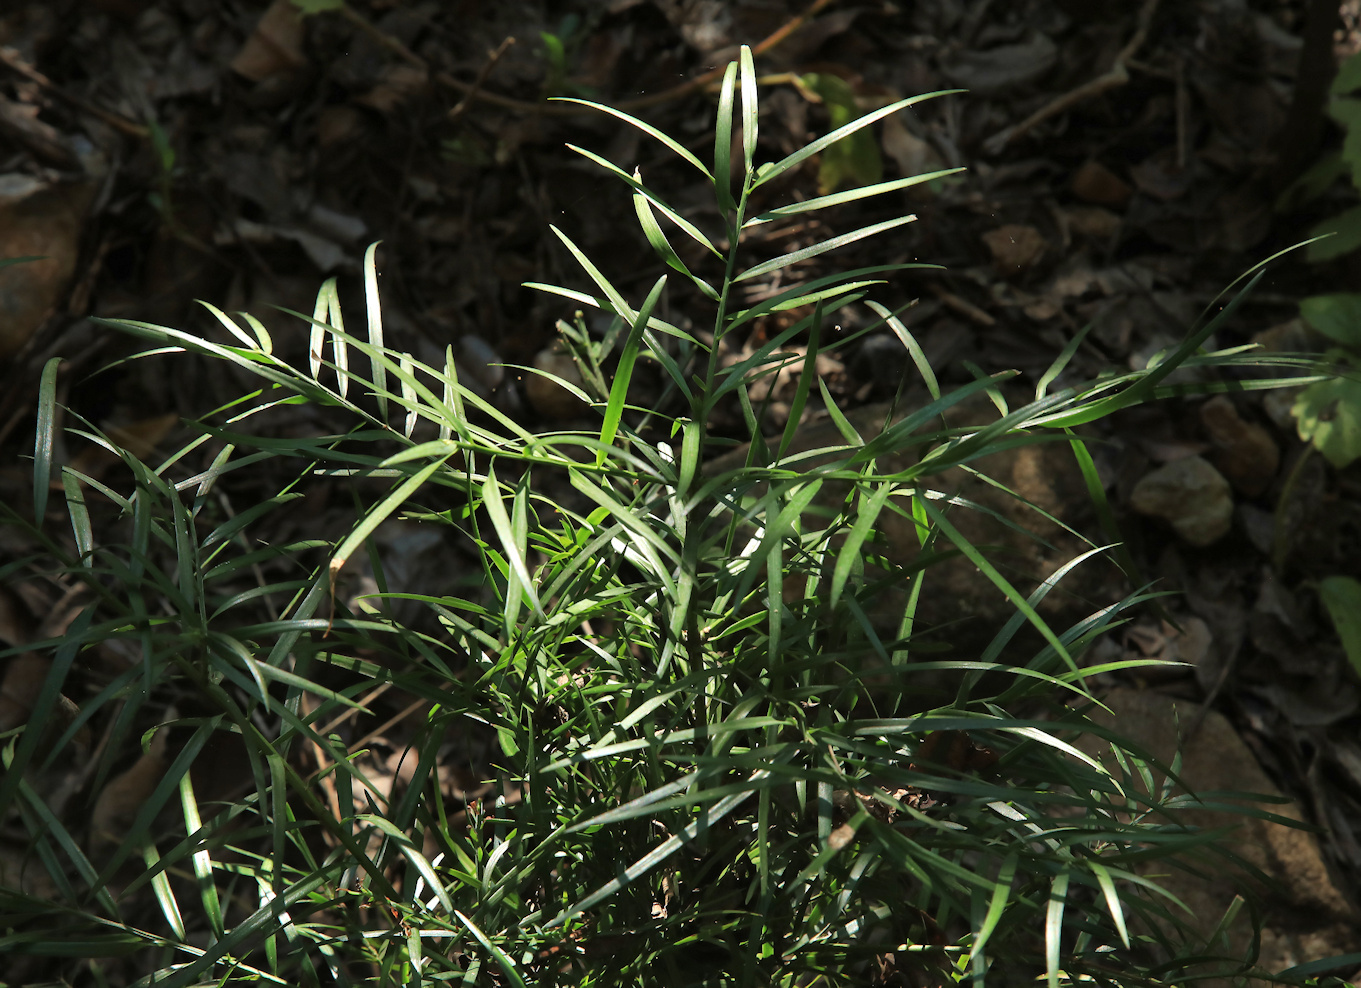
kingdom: Plantae
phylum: Tracheophyta
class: Pinopsida
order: Pinales
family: Podocarpaceae
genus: Afrocarpus
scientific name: Afrocarpus falcatus
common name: Bastard yellowwood
